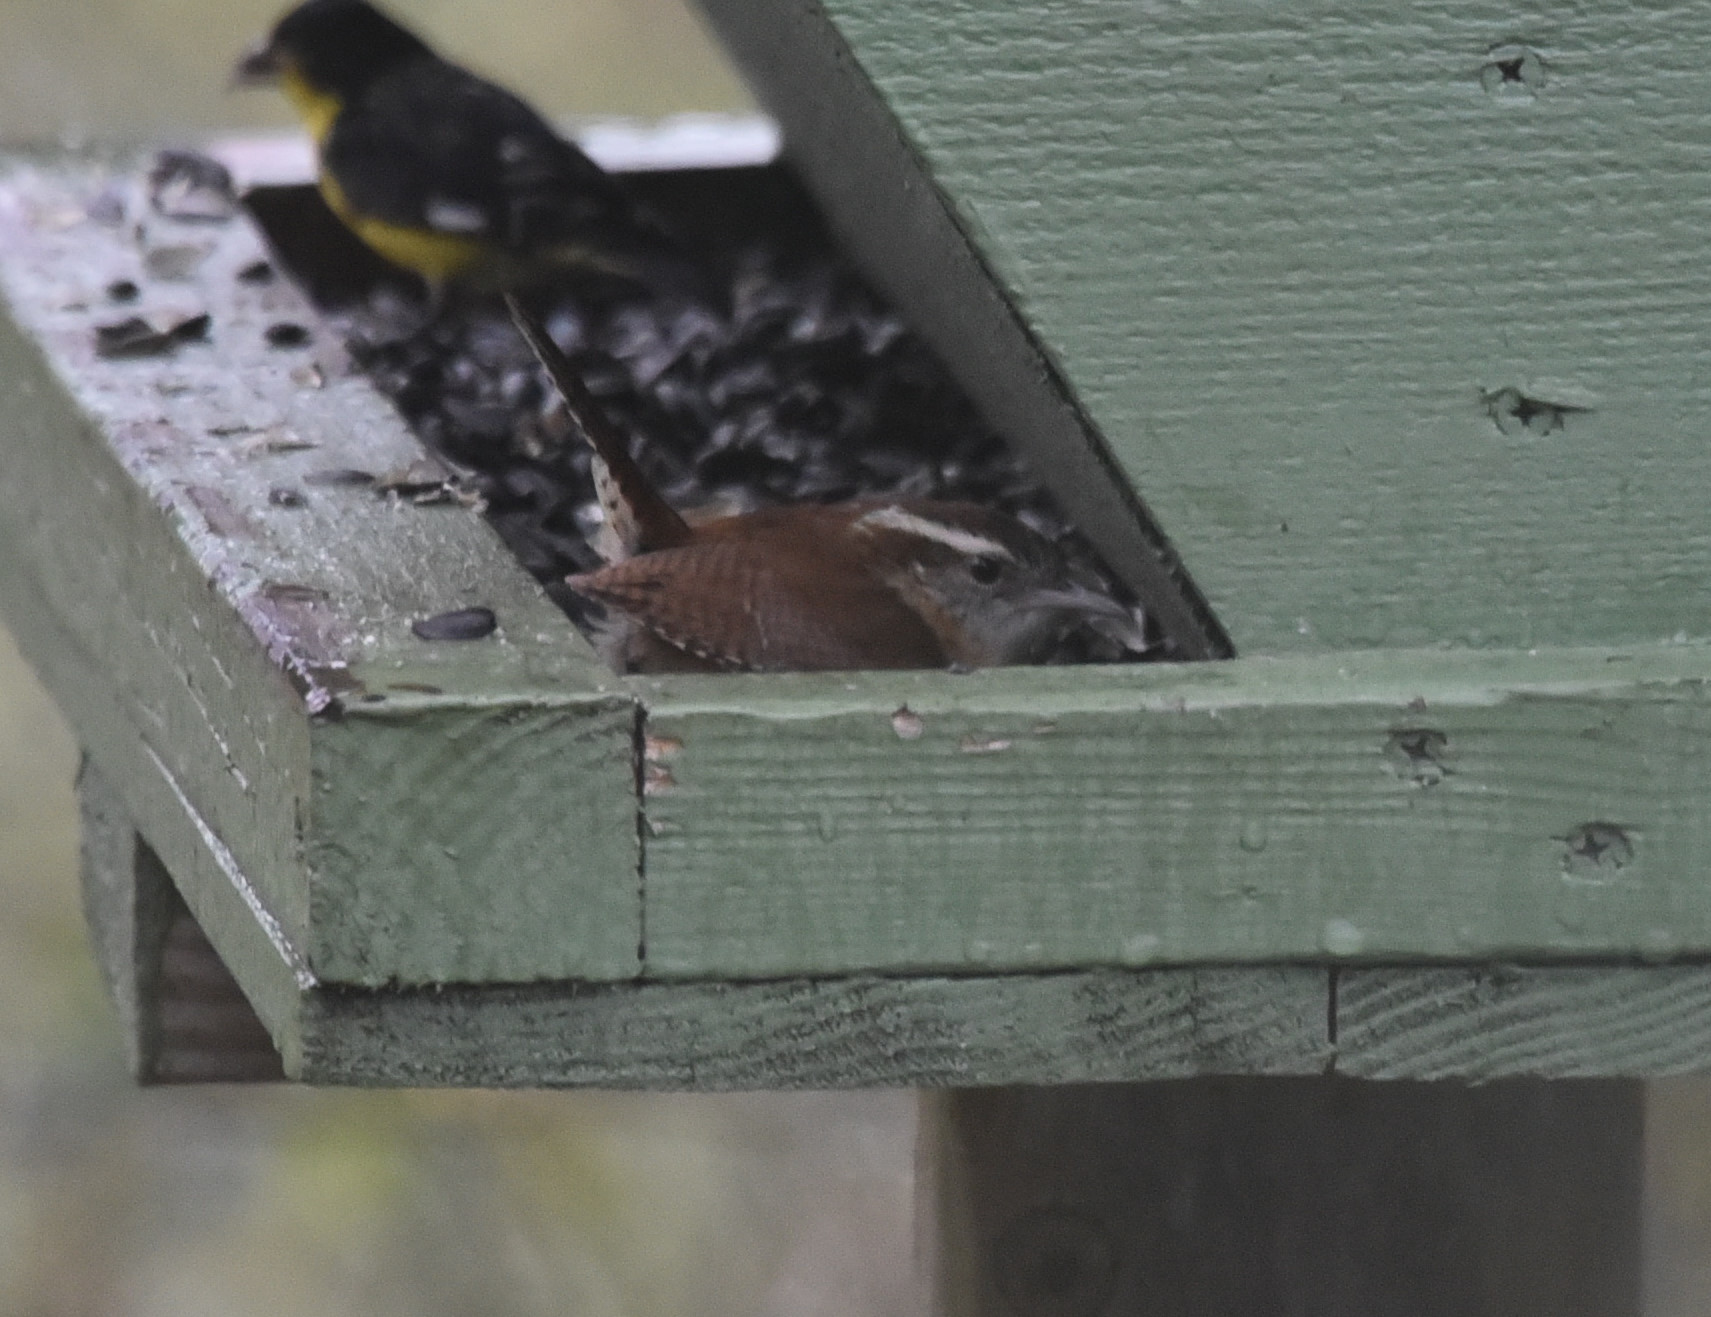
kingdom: Animalia
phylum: Chordata
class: Aves
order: Passeriformes
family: Troglodytidae
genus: Thryothorus
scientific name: Thryothorus ludovicianus
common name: Carolina wren
